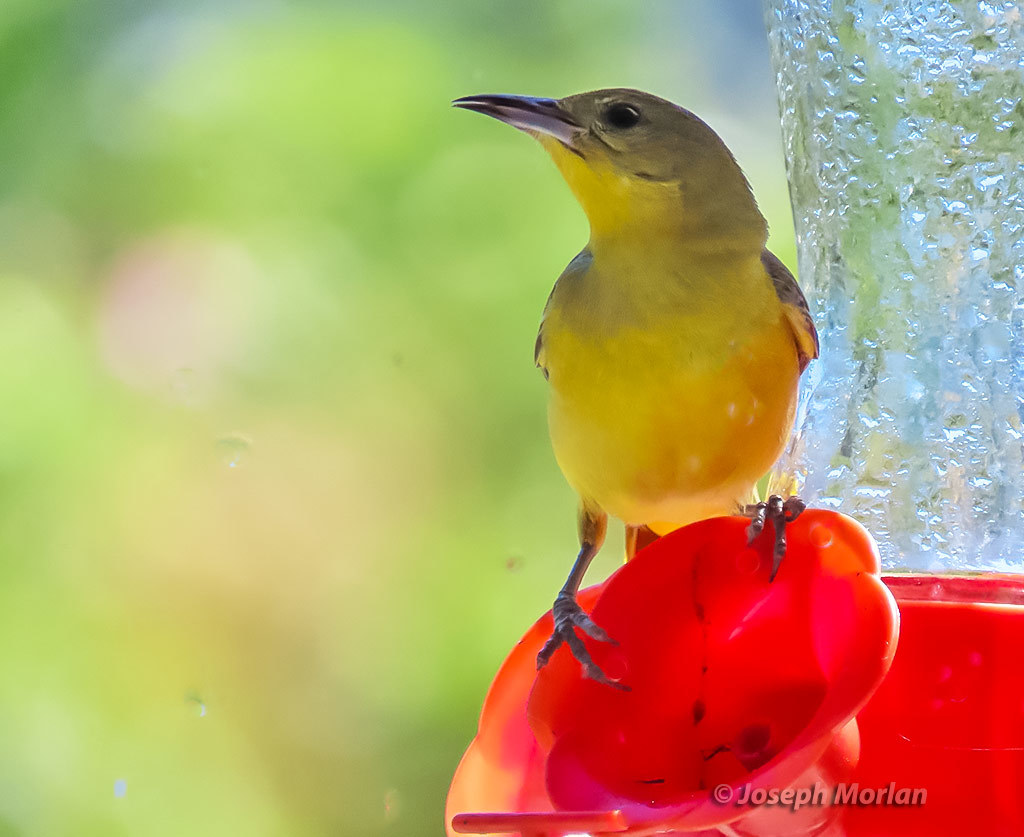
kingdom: Animalia
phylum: Chordata
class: Aves
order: Passeriformes
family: Icteridae
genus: Icterus
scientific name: Icterus cucullatus
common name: Hooded oriole
